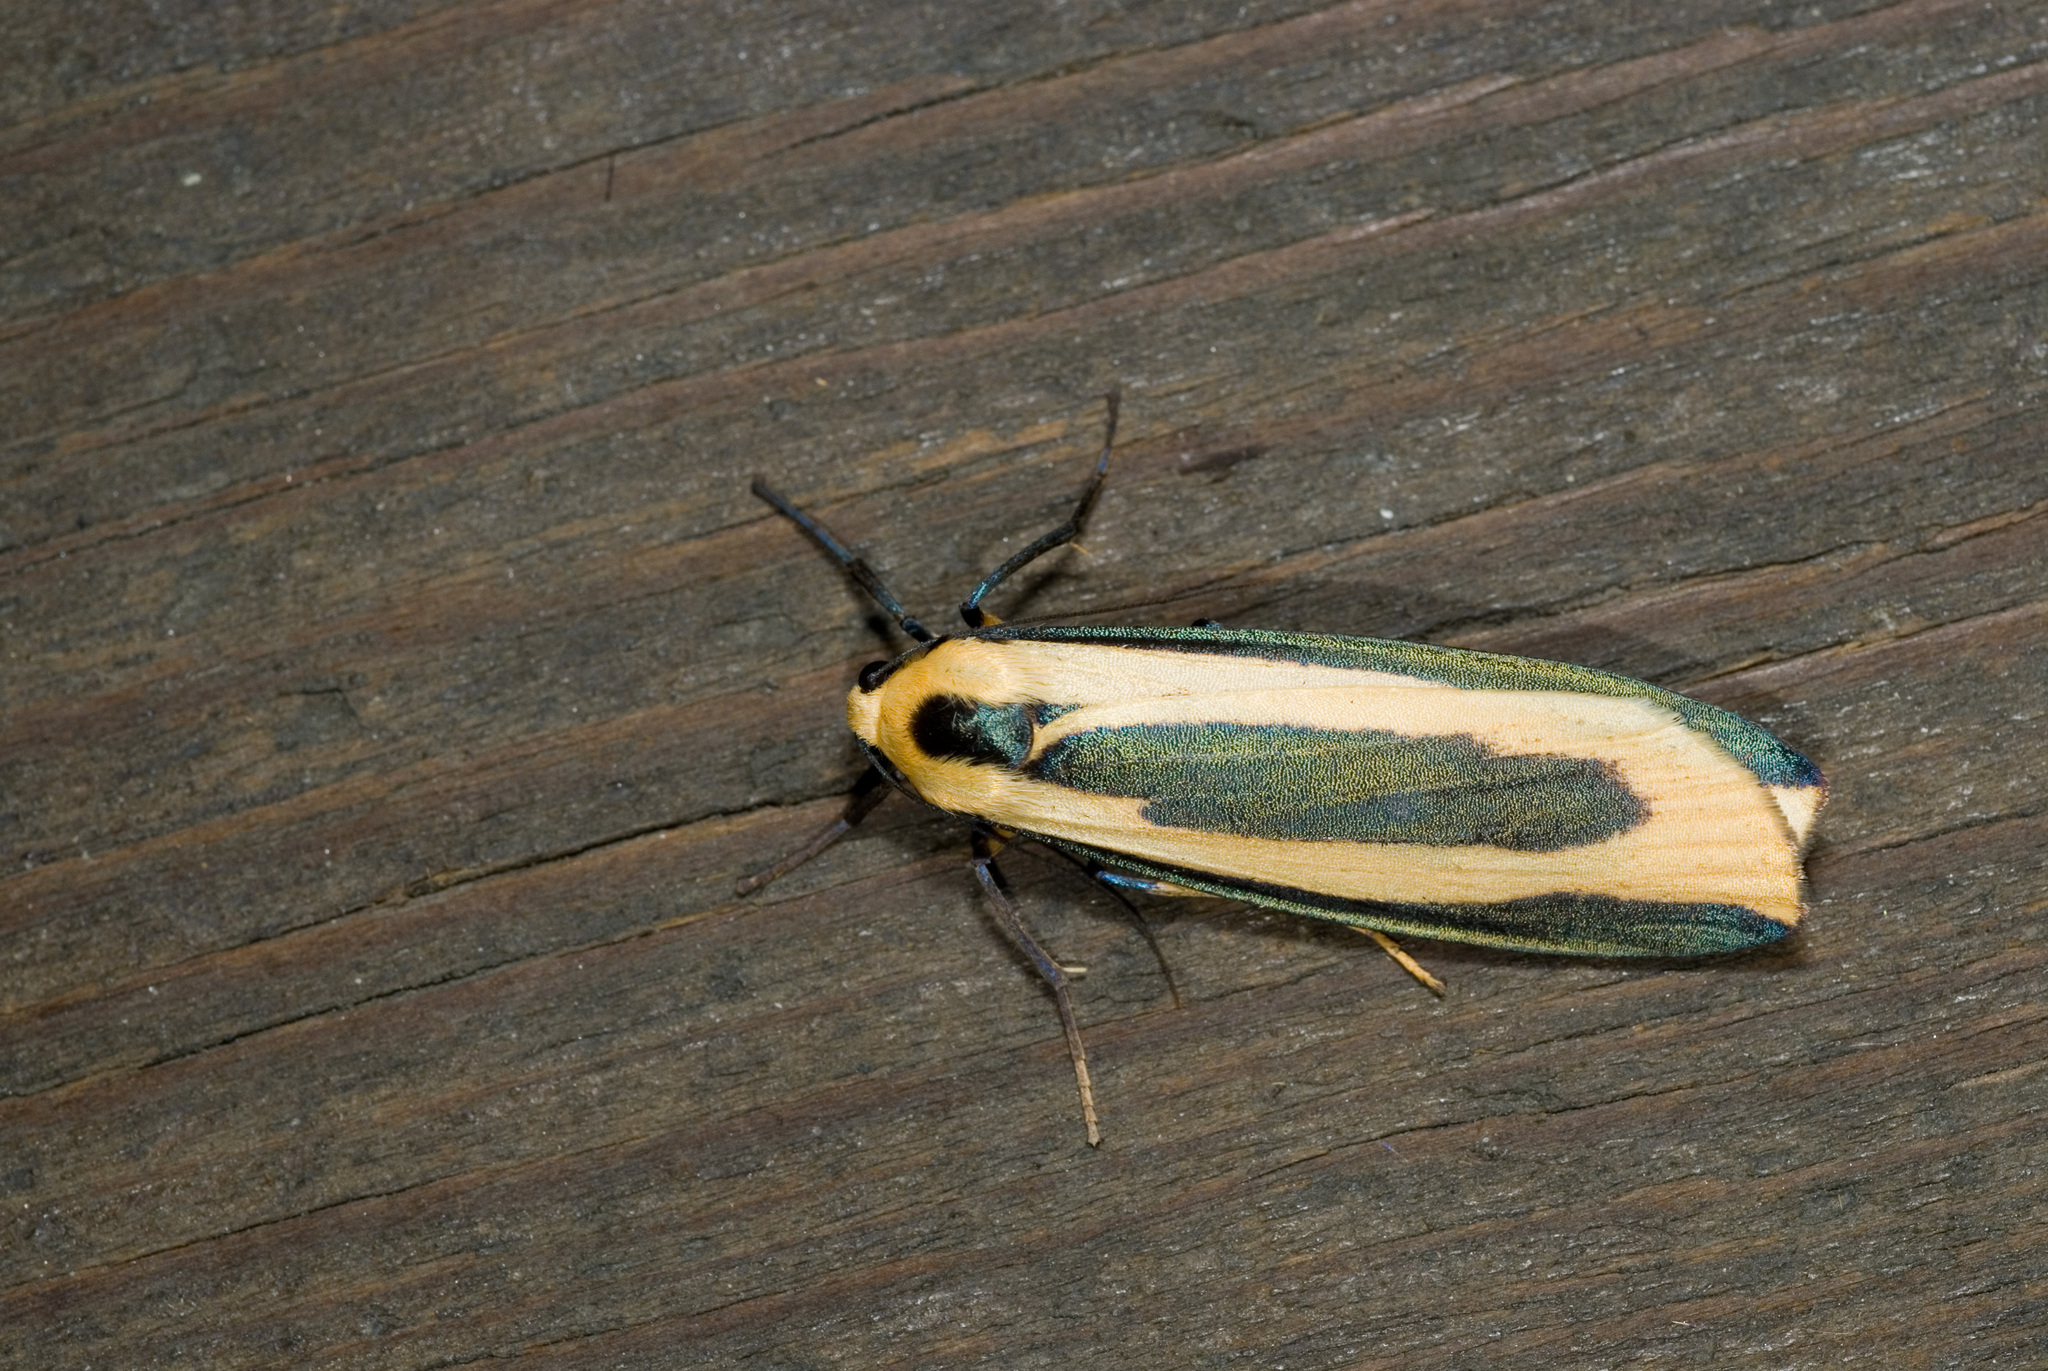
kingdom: Animalia
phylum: Arthropoda
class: Insecta
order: Lepidoptera
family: Erebidae
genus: Chrysorabdia
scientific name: Chrysorabdia taiwana
